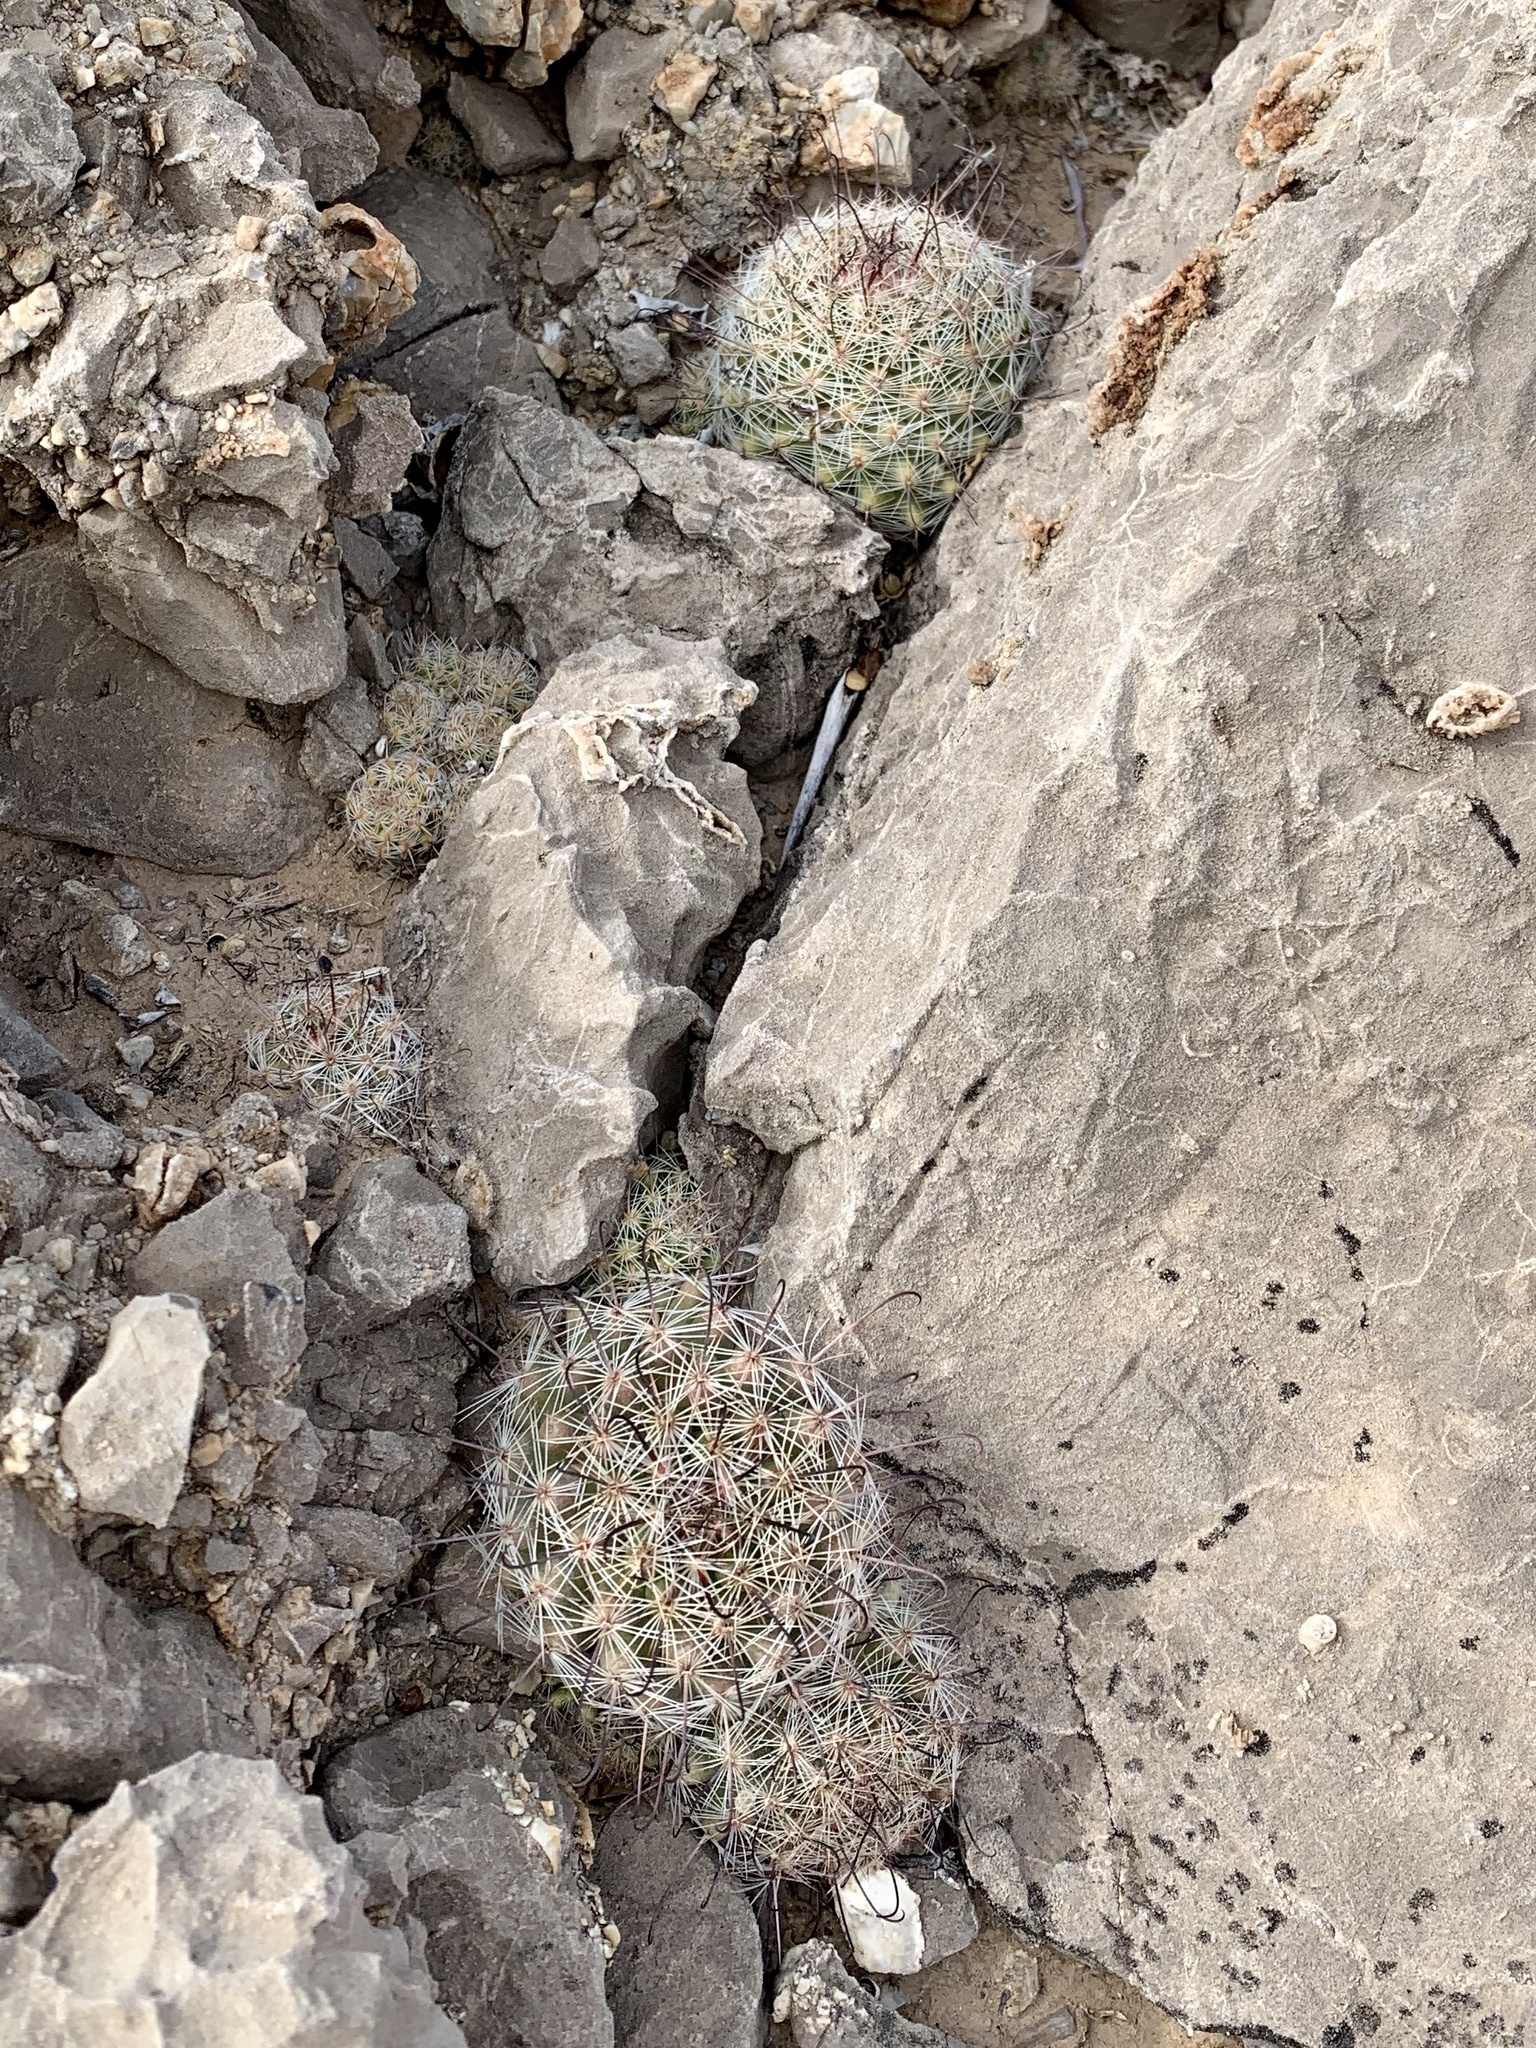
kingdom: Plantae
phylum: Tracheophyta
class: Magnoliopsida
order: Caryophyllales
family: Cactaceae
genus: Cochemiea
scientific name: Cochemiea grahamii
